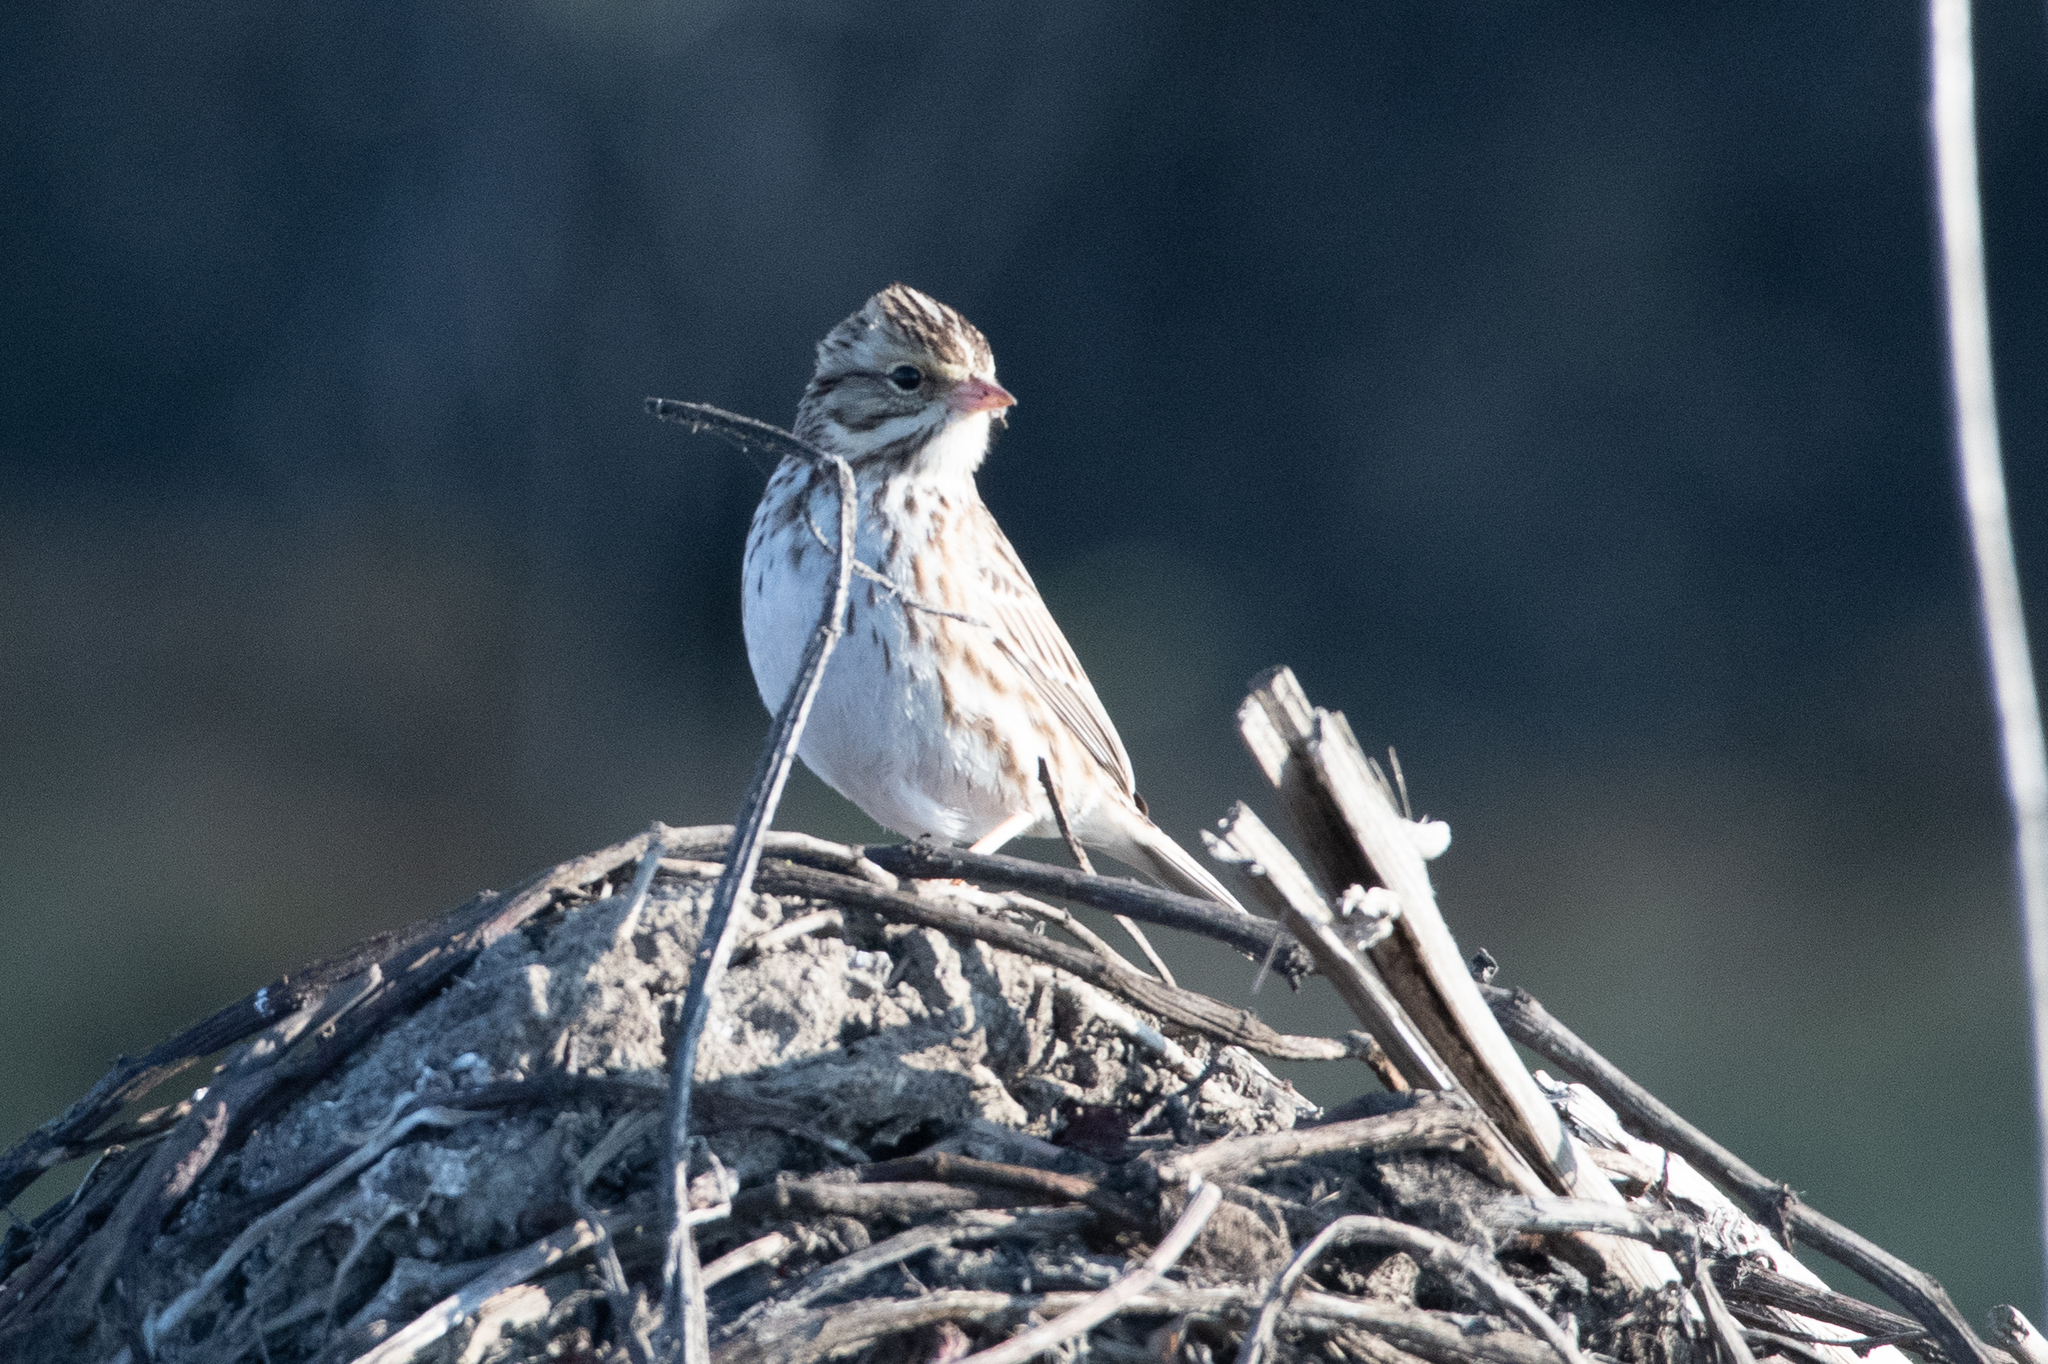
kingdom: Animalia
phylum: Chordata
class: Aves
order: Passeriformes
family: Passerellidae
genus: Passerculus
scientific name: Passerculus sandwichensis
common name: Savannah sparrow
